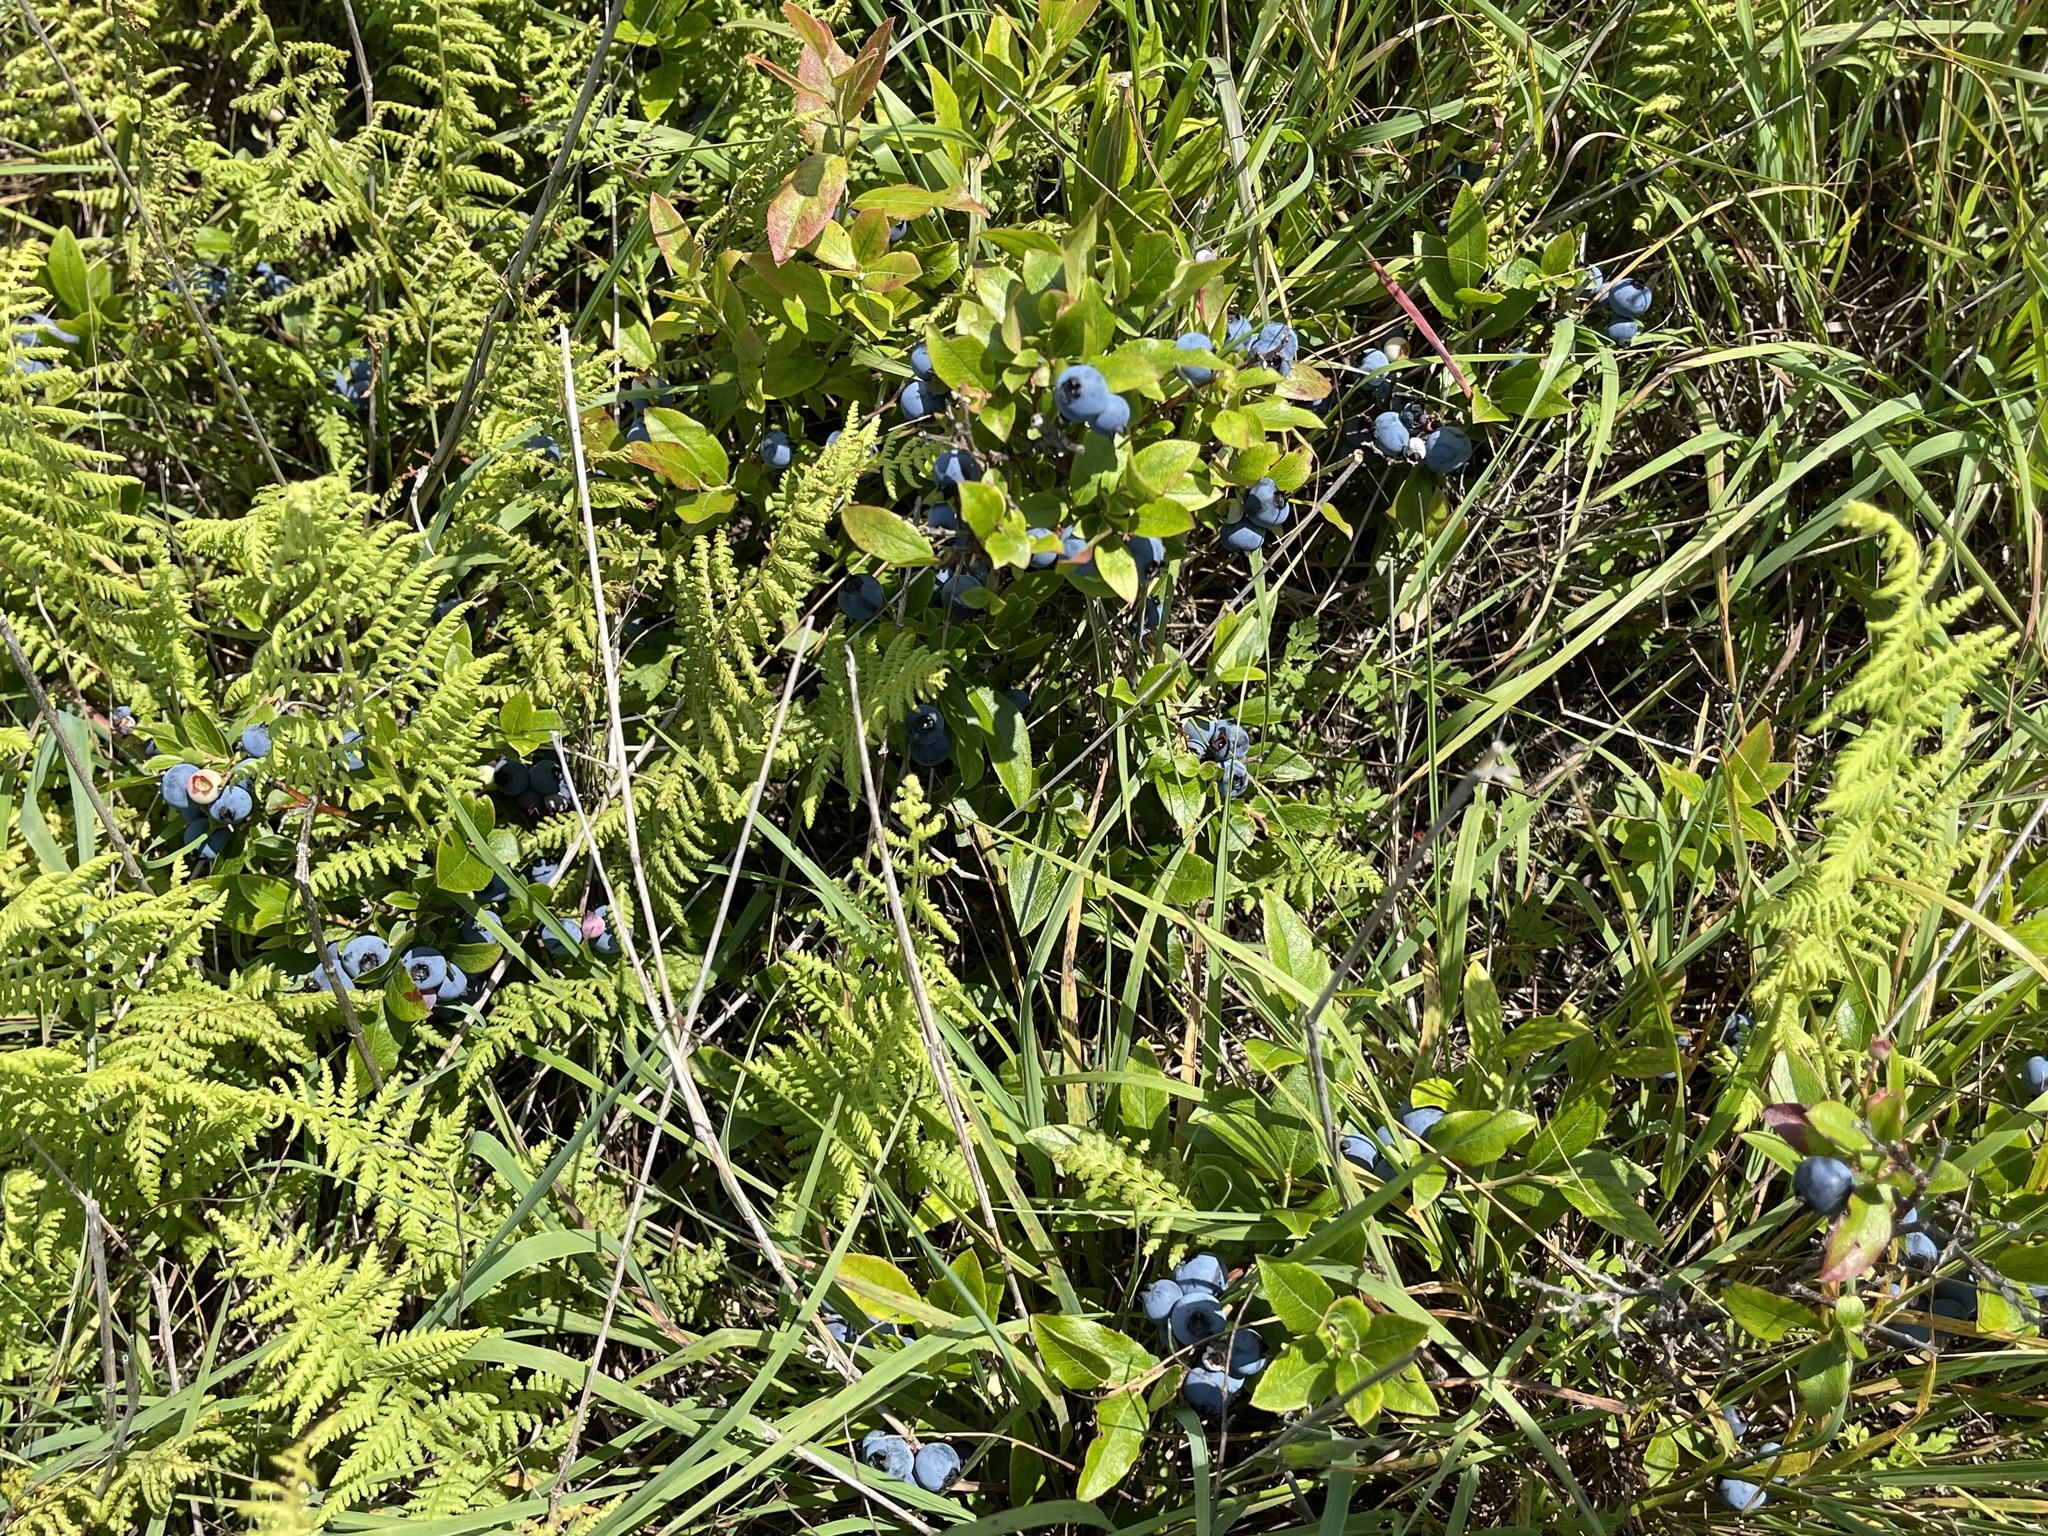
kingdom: Plantae
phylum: Tracheophyta
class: Magnoliopsida
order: Ericales
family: Ericaceae
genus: Vaccinium
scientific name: Vaccinium angustifolium
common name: Early lowbush blueberry
